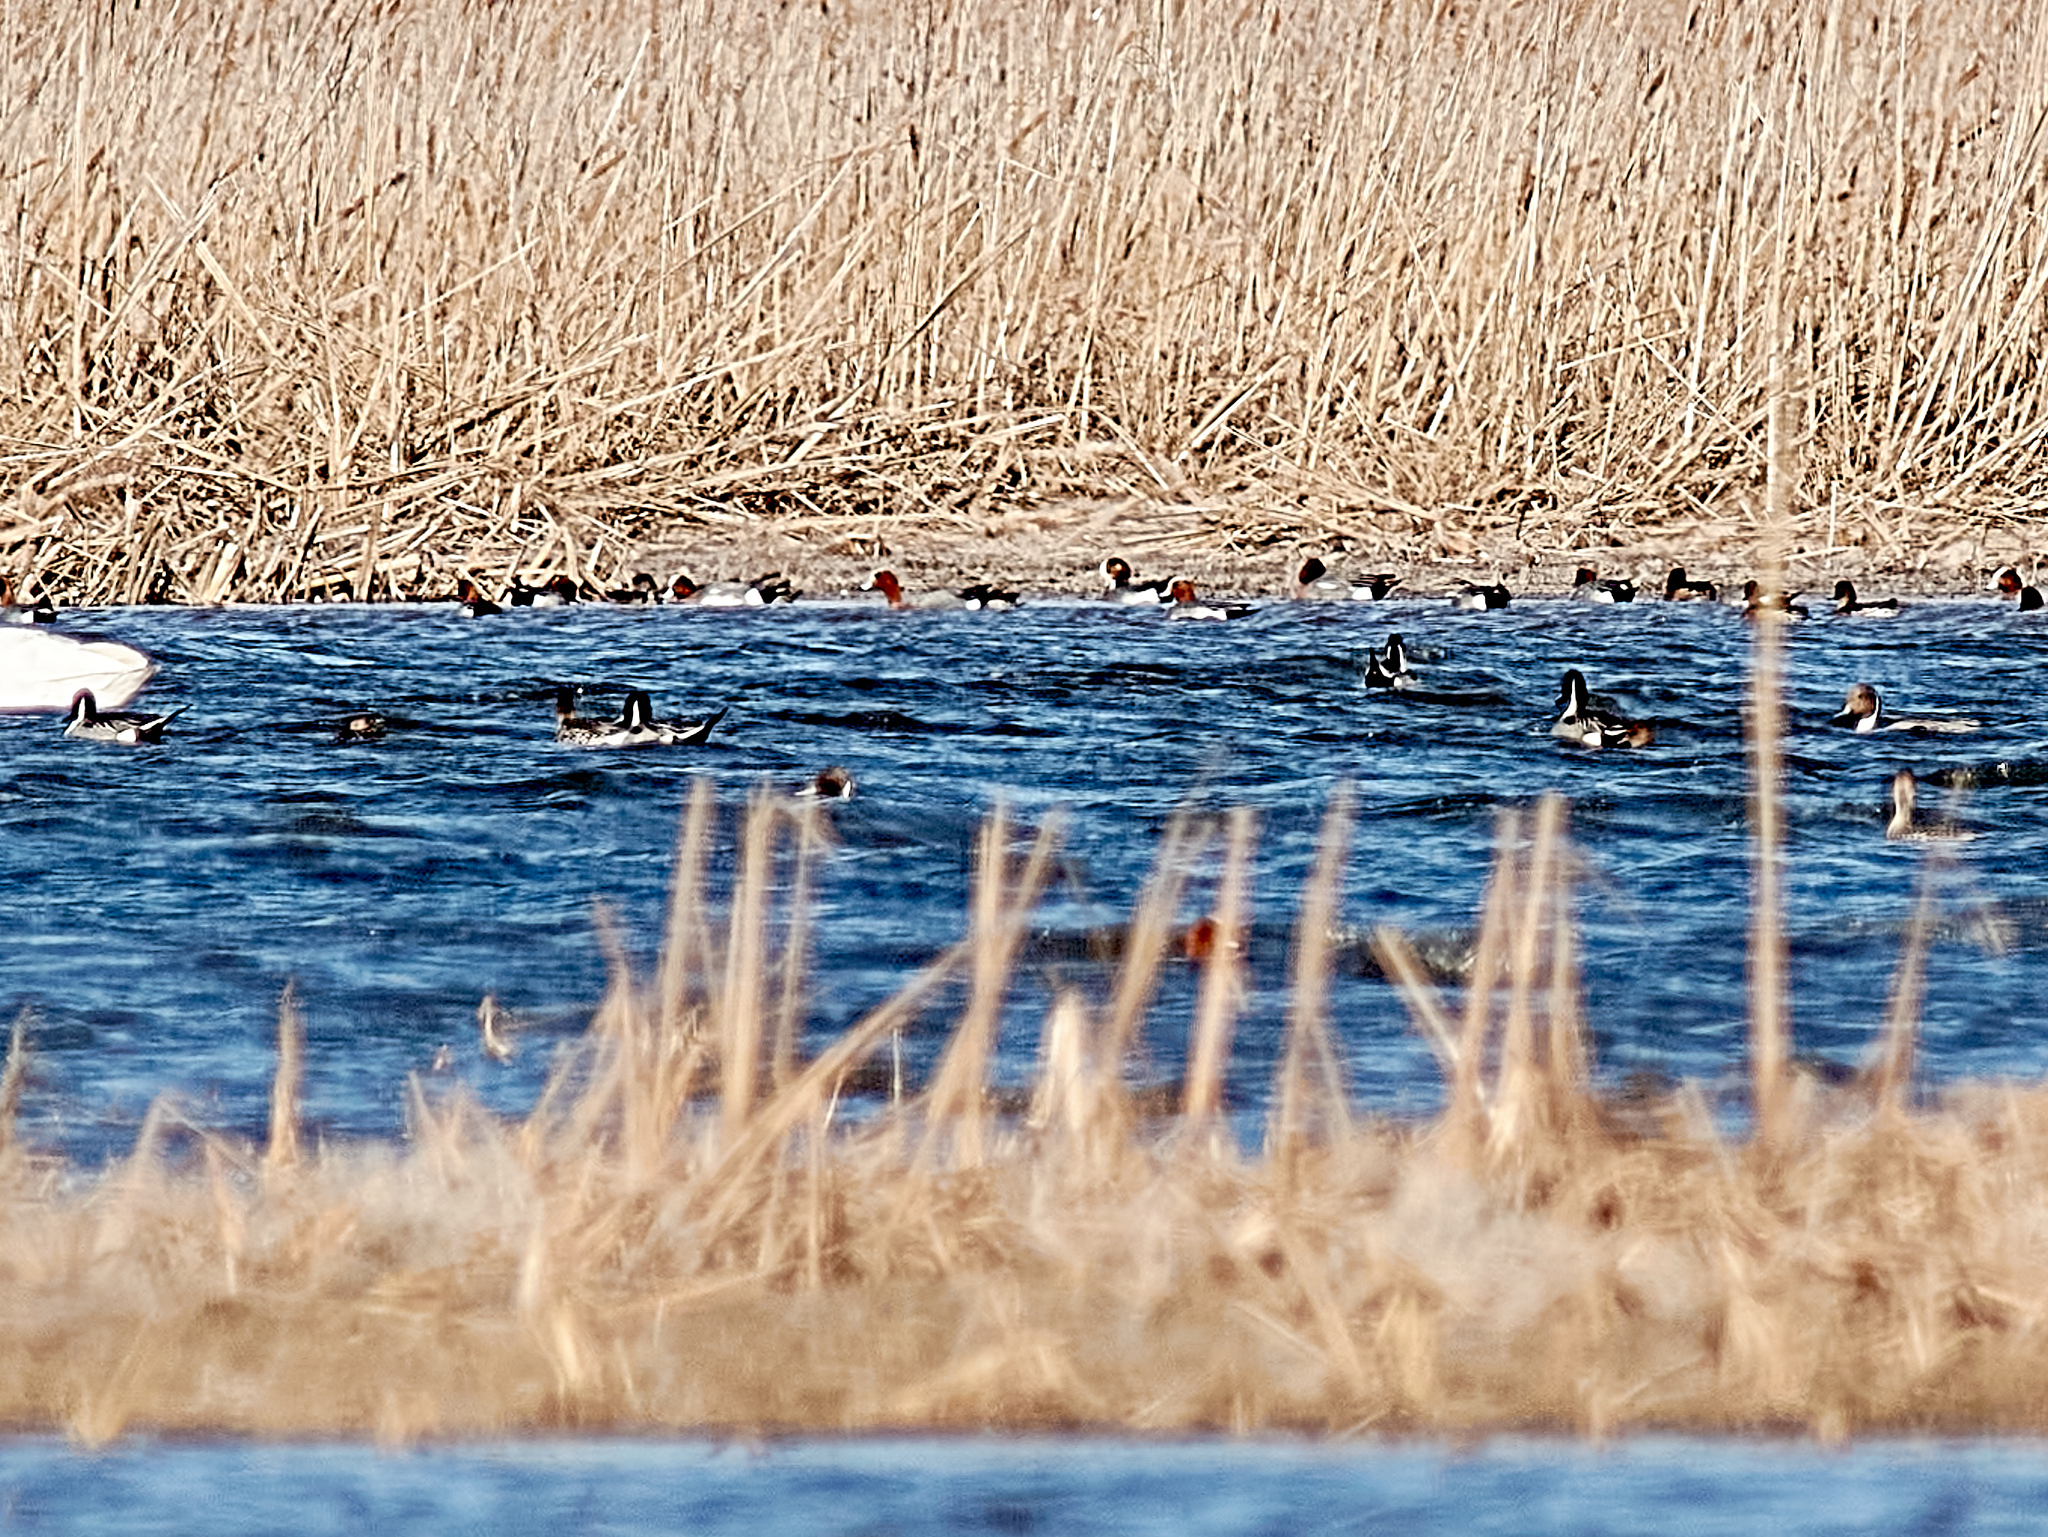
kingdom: Animalia
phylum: Chordata
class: Aves
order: Anseriformes
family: Anatidae
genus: Anas
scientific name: Anas acuta
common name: Northern pintail
